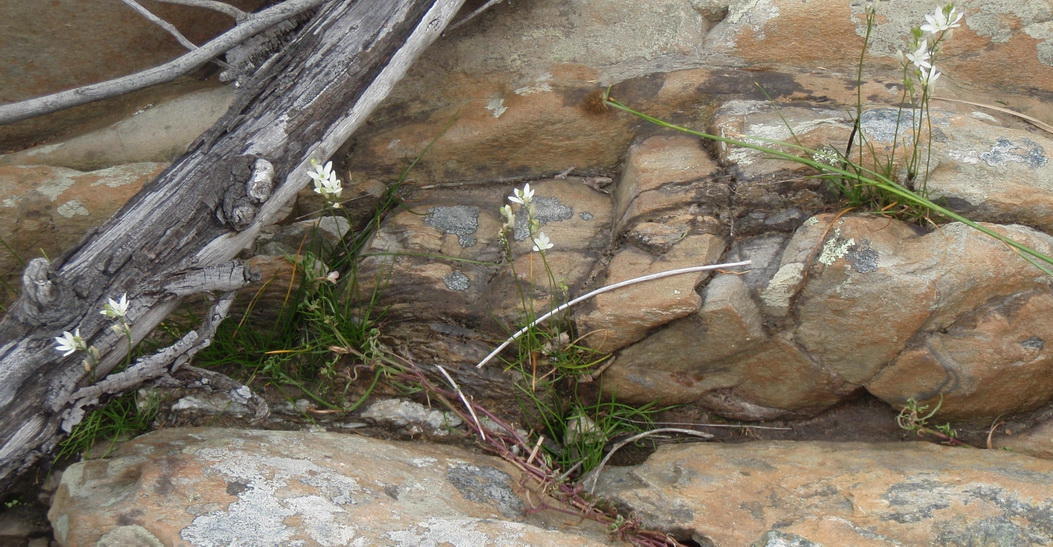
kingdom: Plantae
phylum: Tracheophyta
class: Liliopsida
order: Asparagales
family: Asparagaceae
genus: Ornithogalum
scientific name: Ornithogalum niveum
